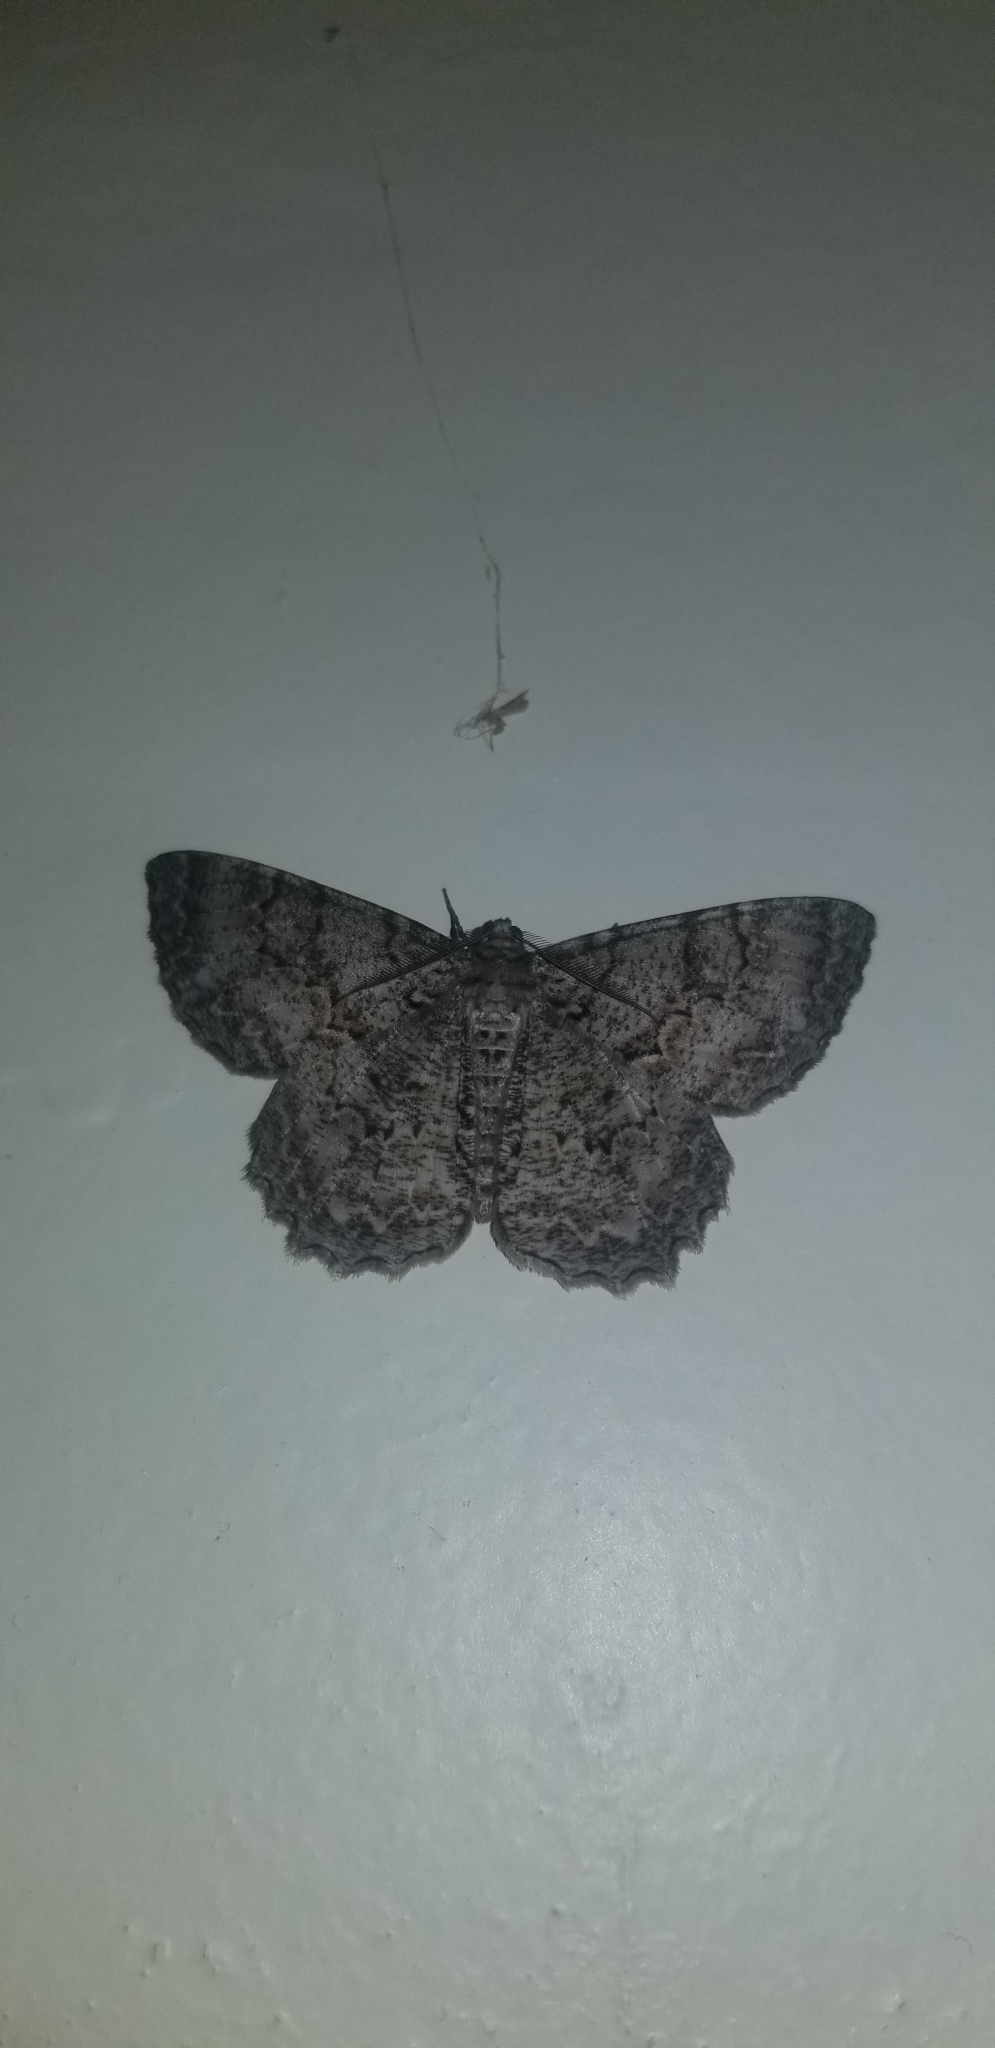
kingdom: Animalia
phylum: Arthropoda
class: Insecta
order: Lepidoptera
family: Geometridae
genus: Epimecis
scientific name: Epimecis hortaria
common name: Tulip-tree beauty
